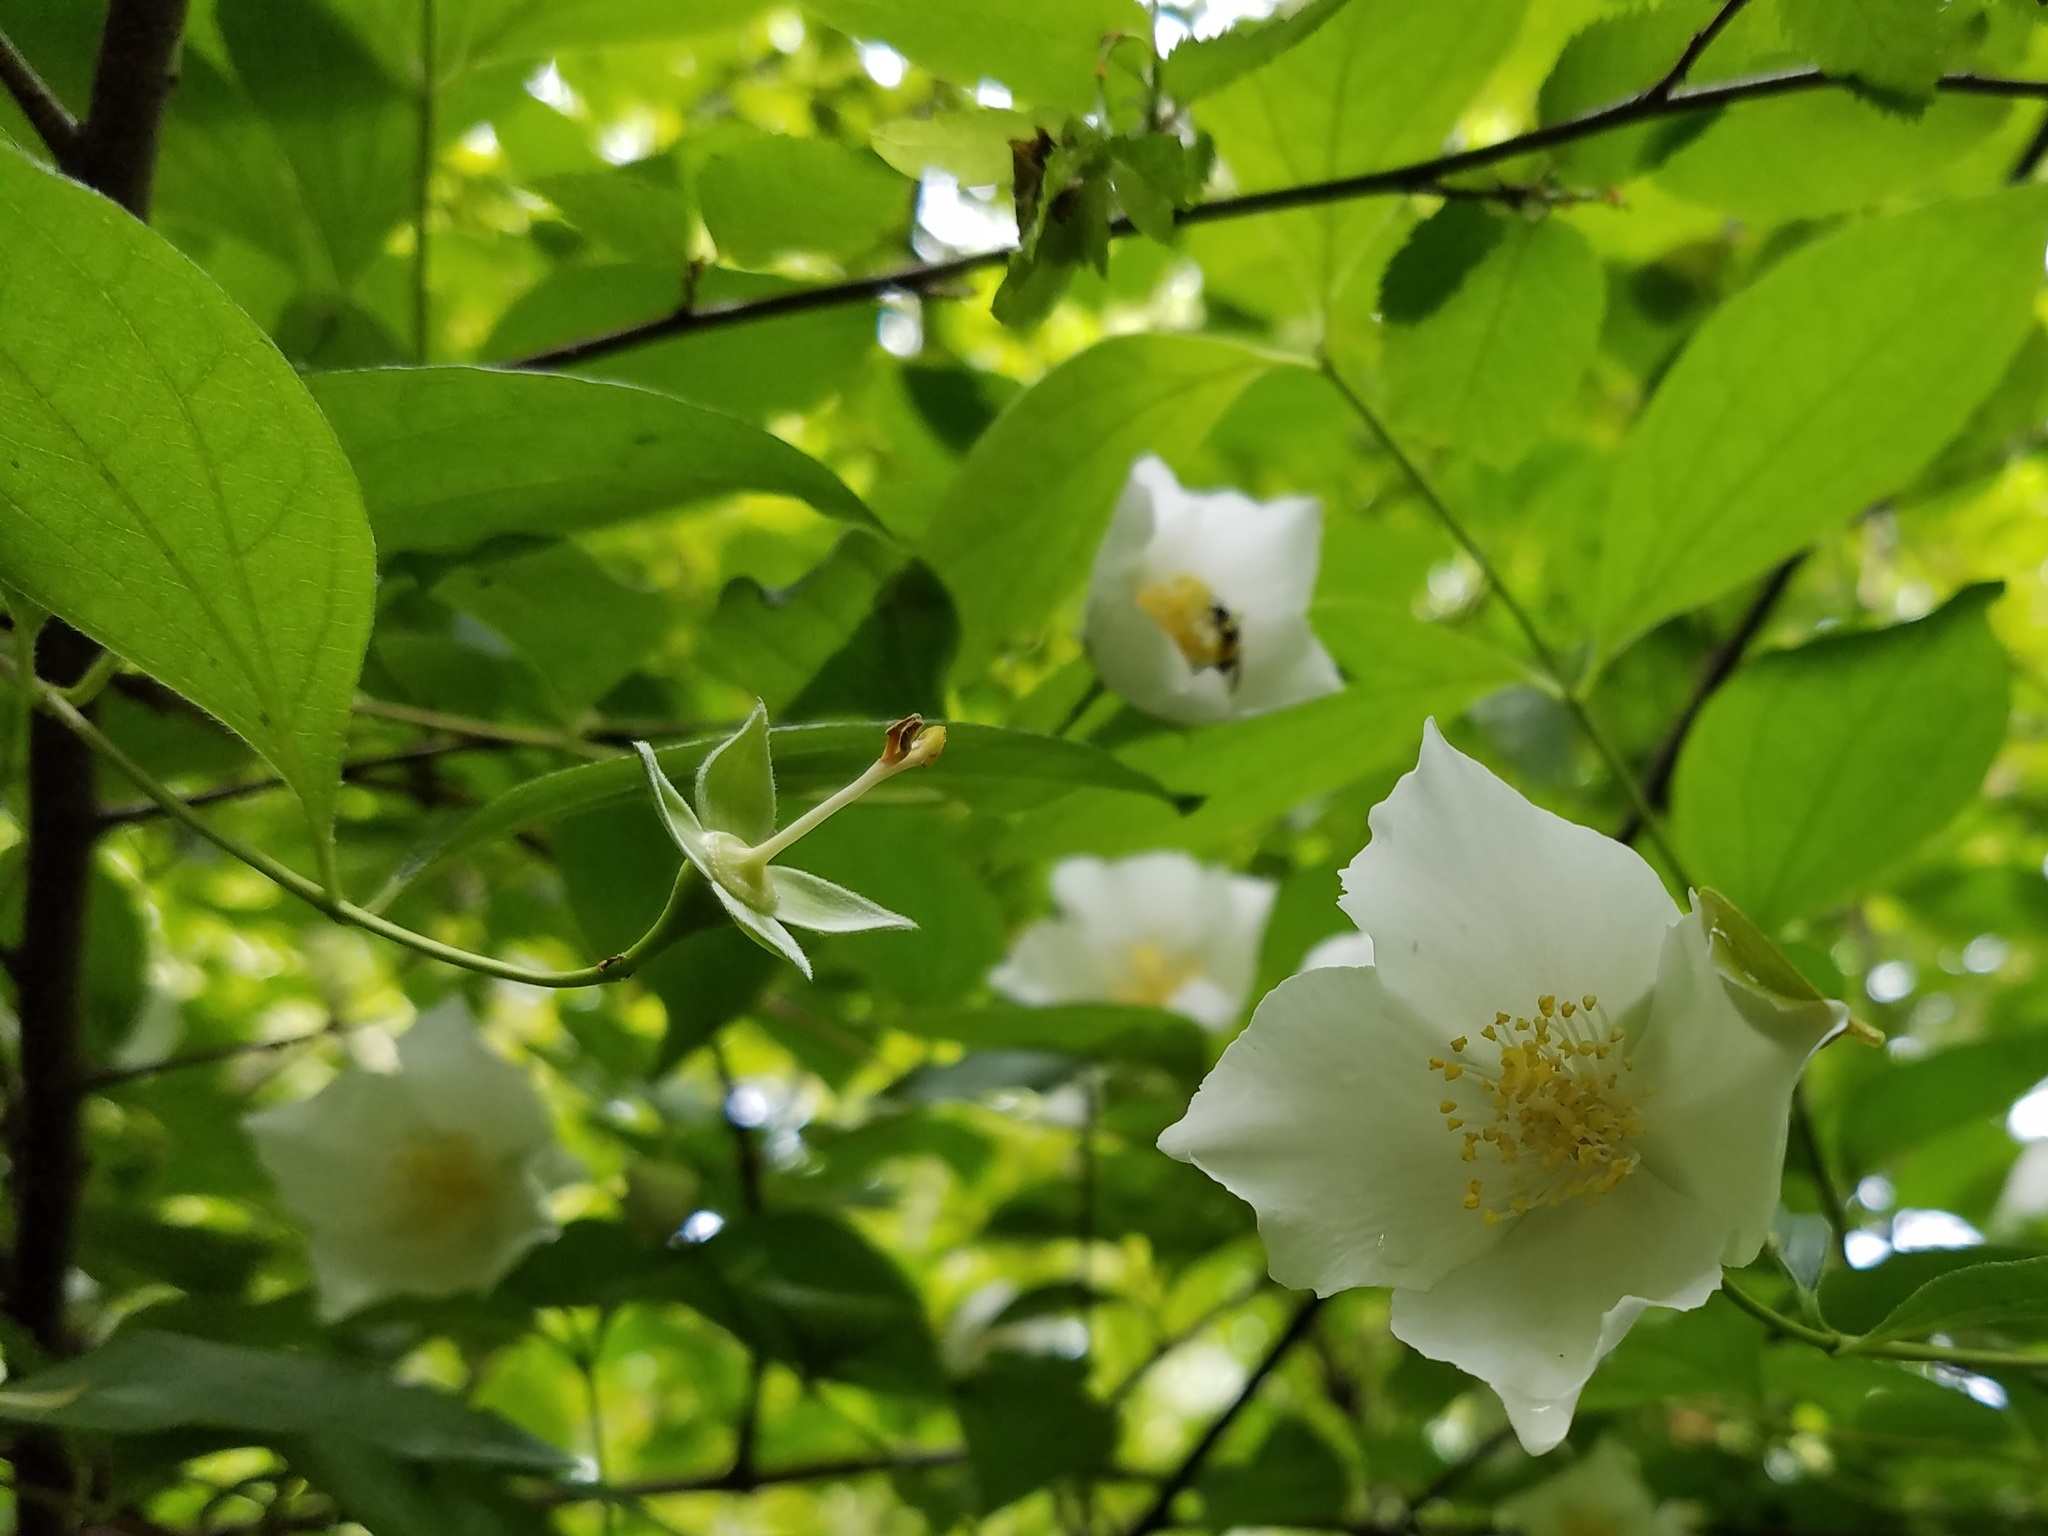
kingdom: Plantae
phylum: Tracheophyta
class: Magnoliopsida
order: Cornales
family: Hydrangeaceae
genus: Philadelphus
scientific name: Philadelphus inodorus
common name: Scentless mock-orange
